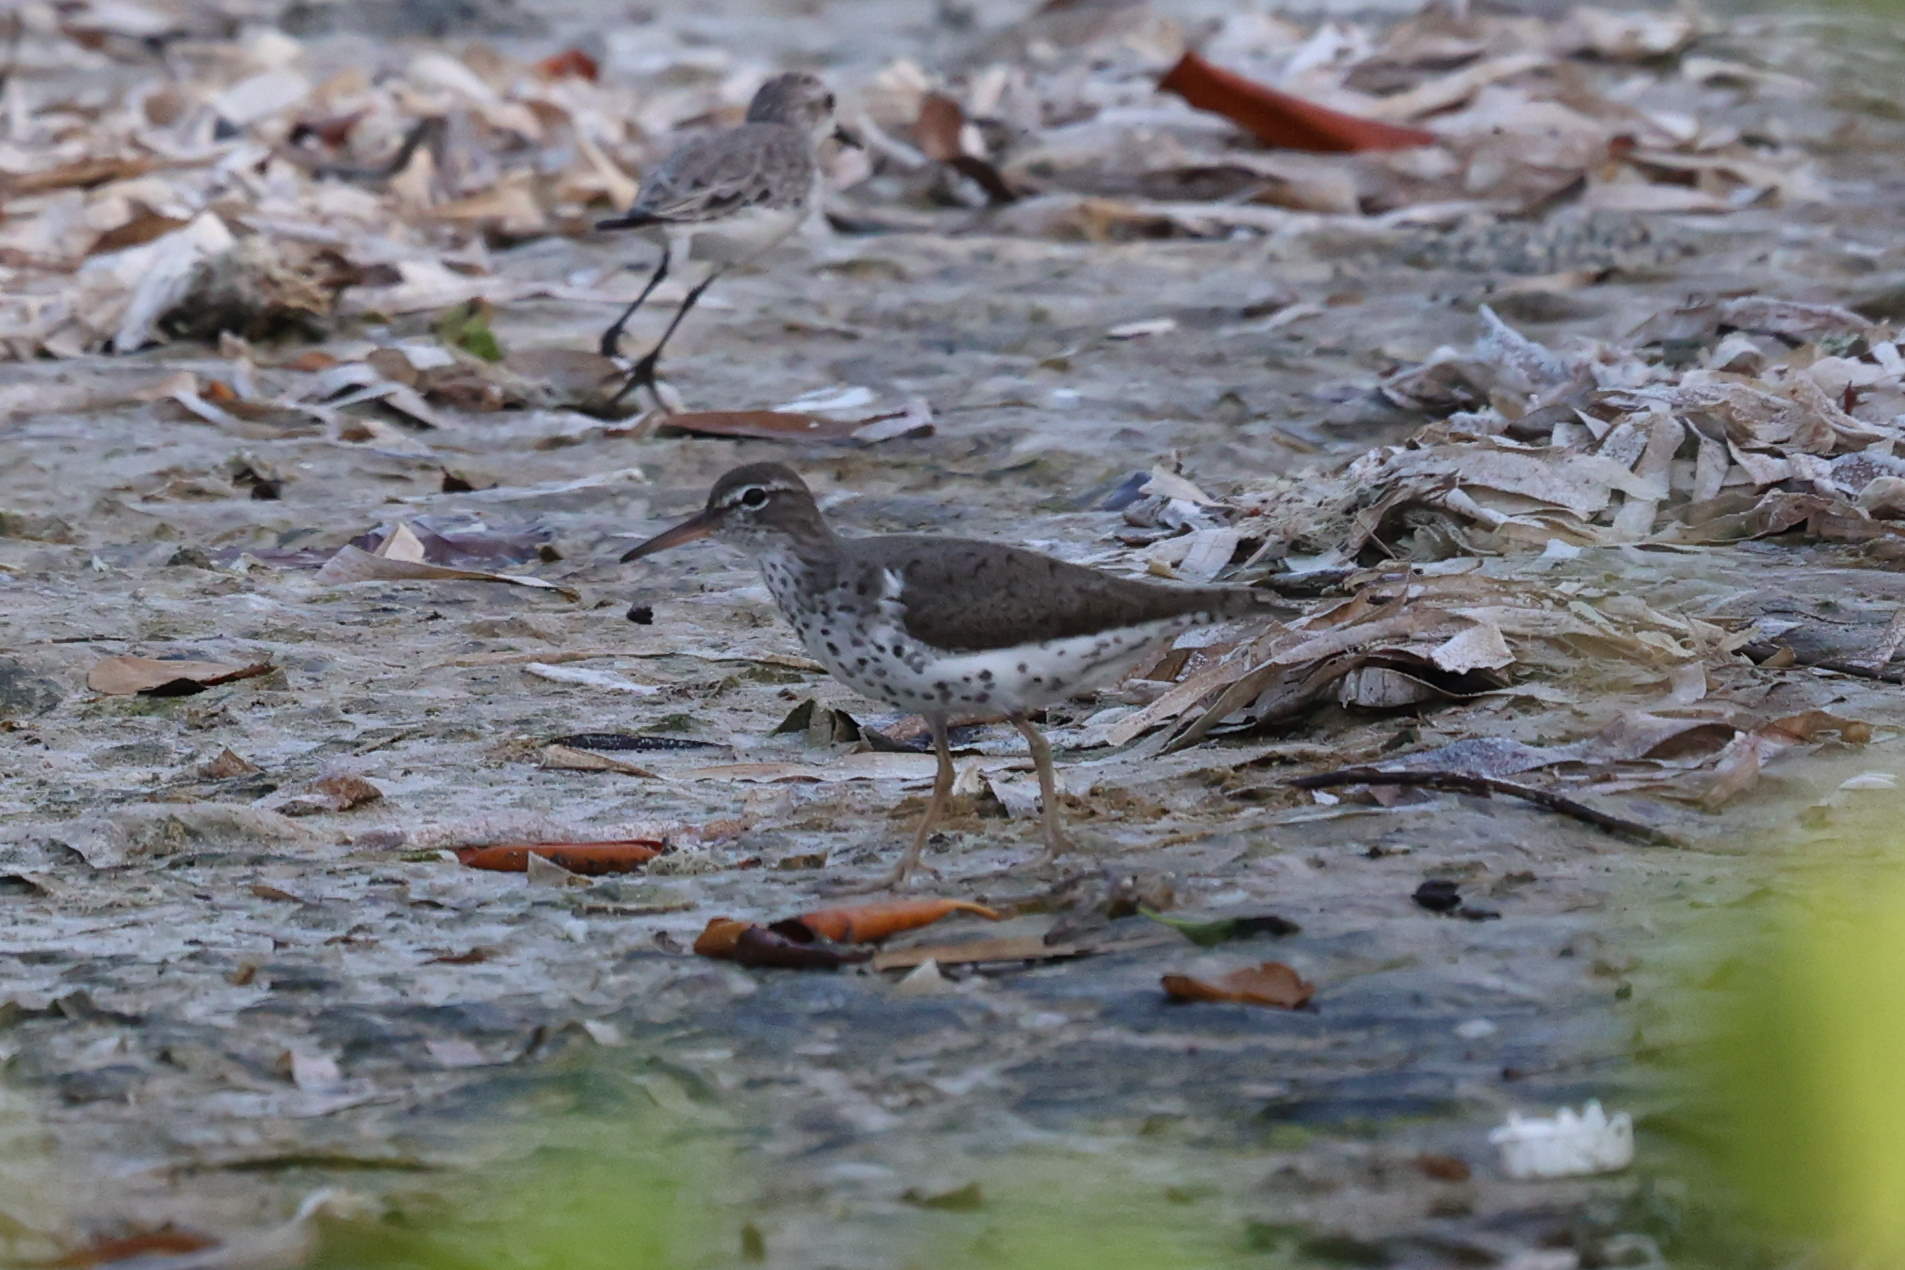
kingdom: Animalia
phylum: Chordata
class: Aves
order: Charadriiformes
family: Scolopacidae
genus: Actitis
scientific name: Actitis macularius
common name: Spotted sandpiper
